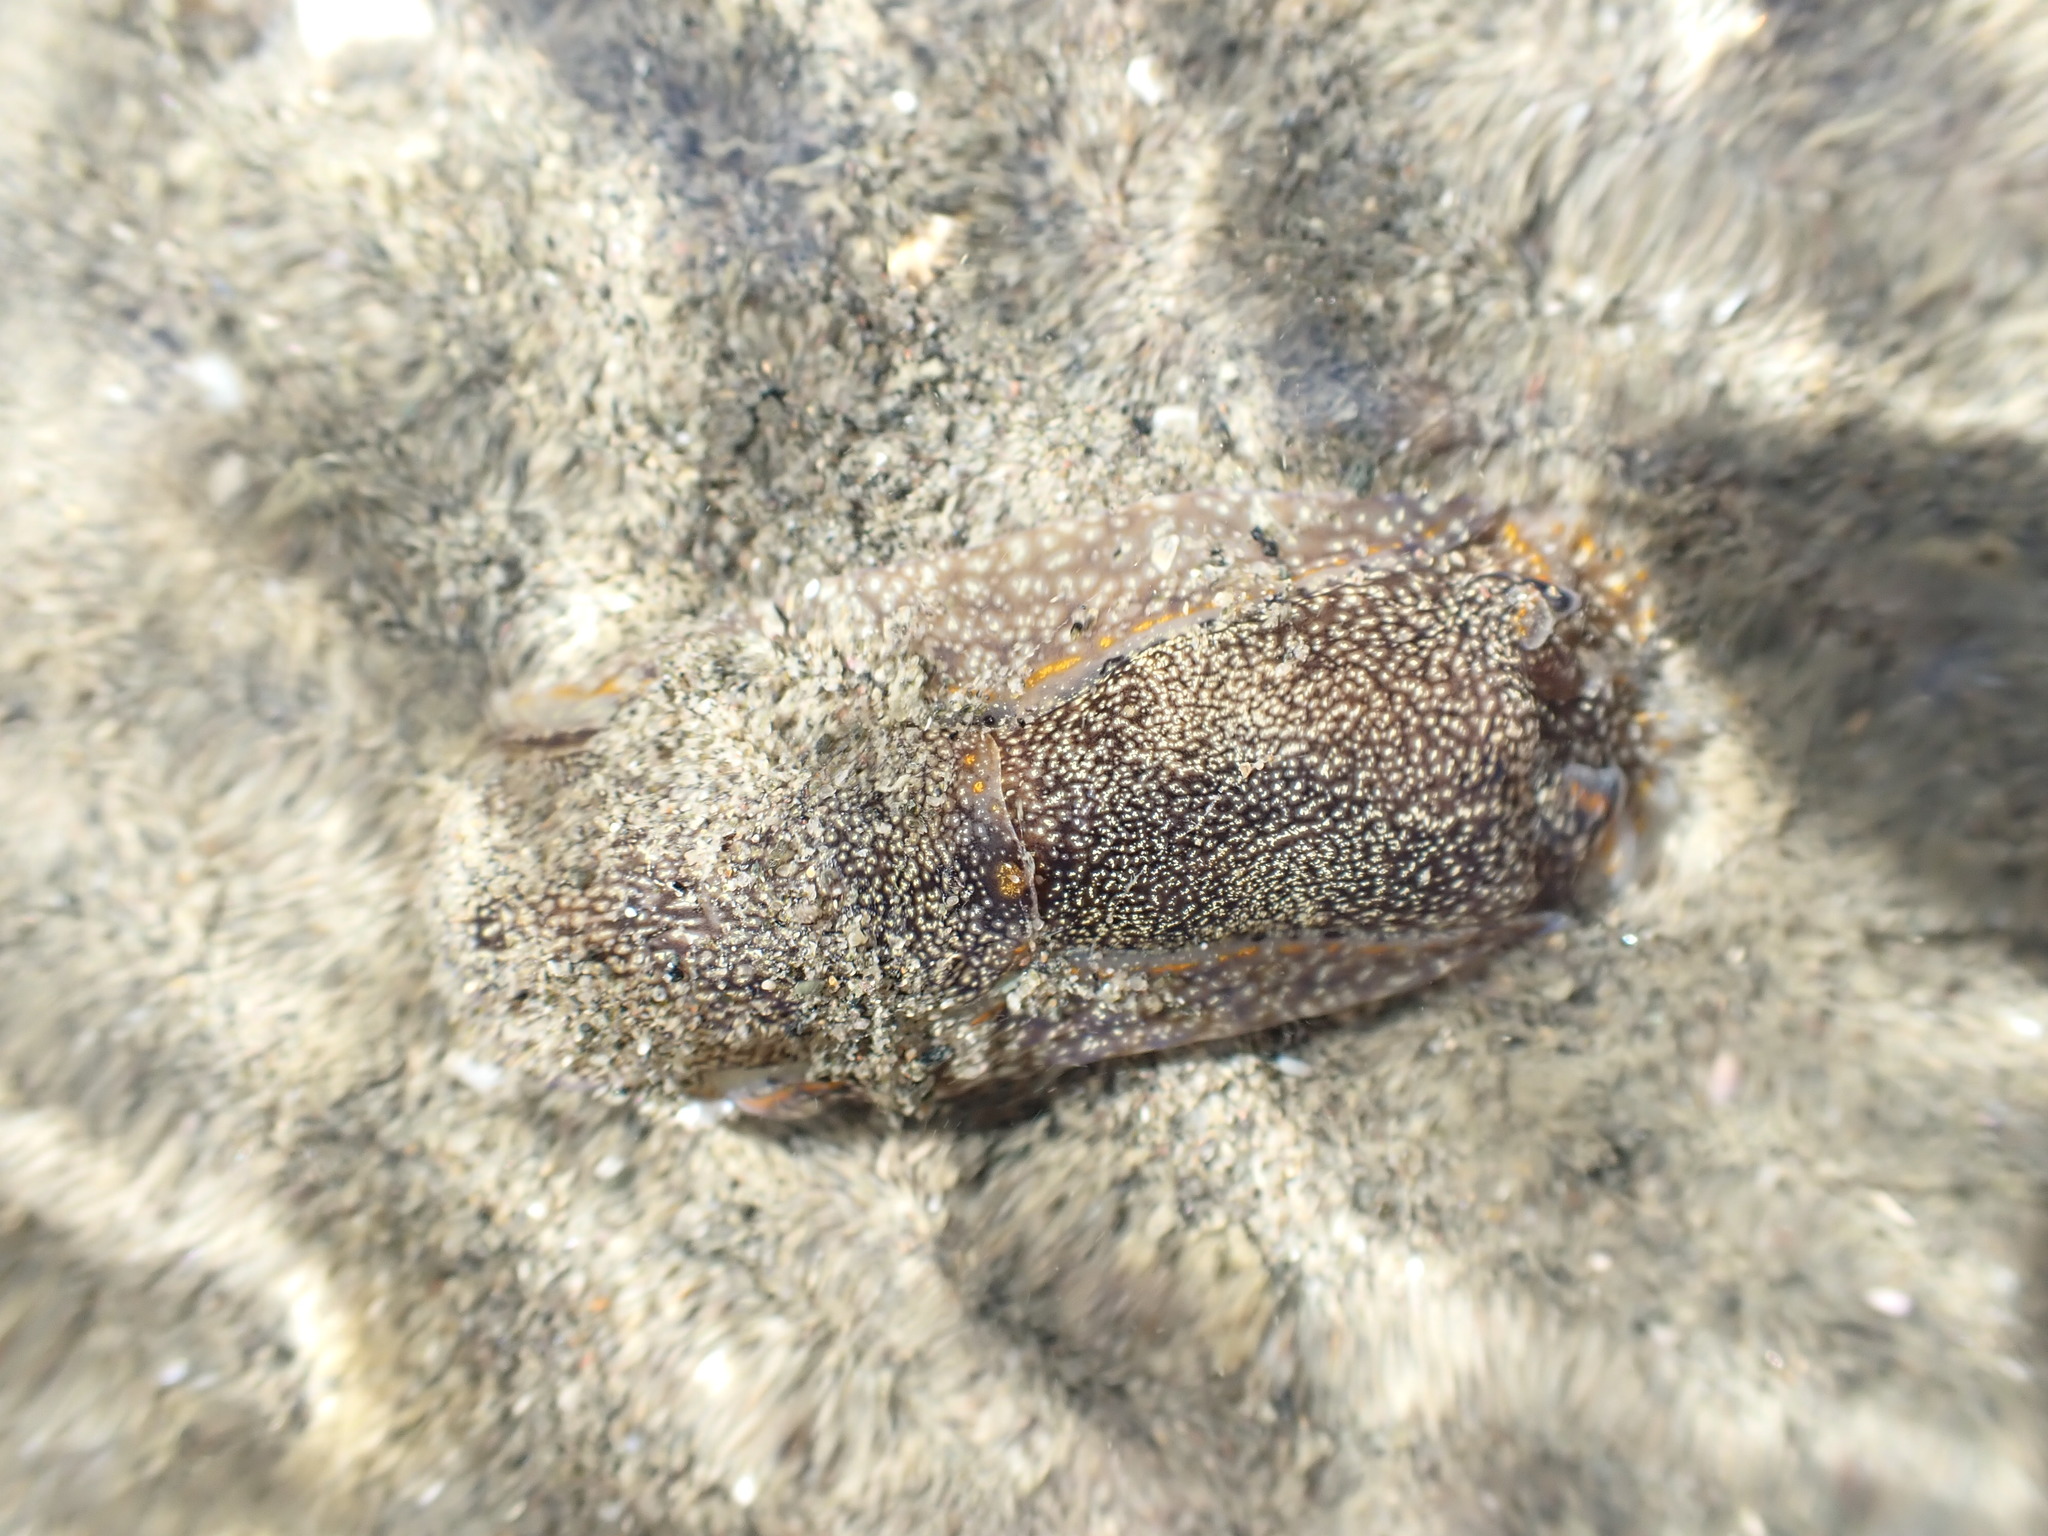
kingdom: Animalia
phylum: Mollusca
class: Gastropoda
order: Cephalaspidea
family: Aglajidae
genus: Philinopsis
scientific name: Philinopsis taronga
